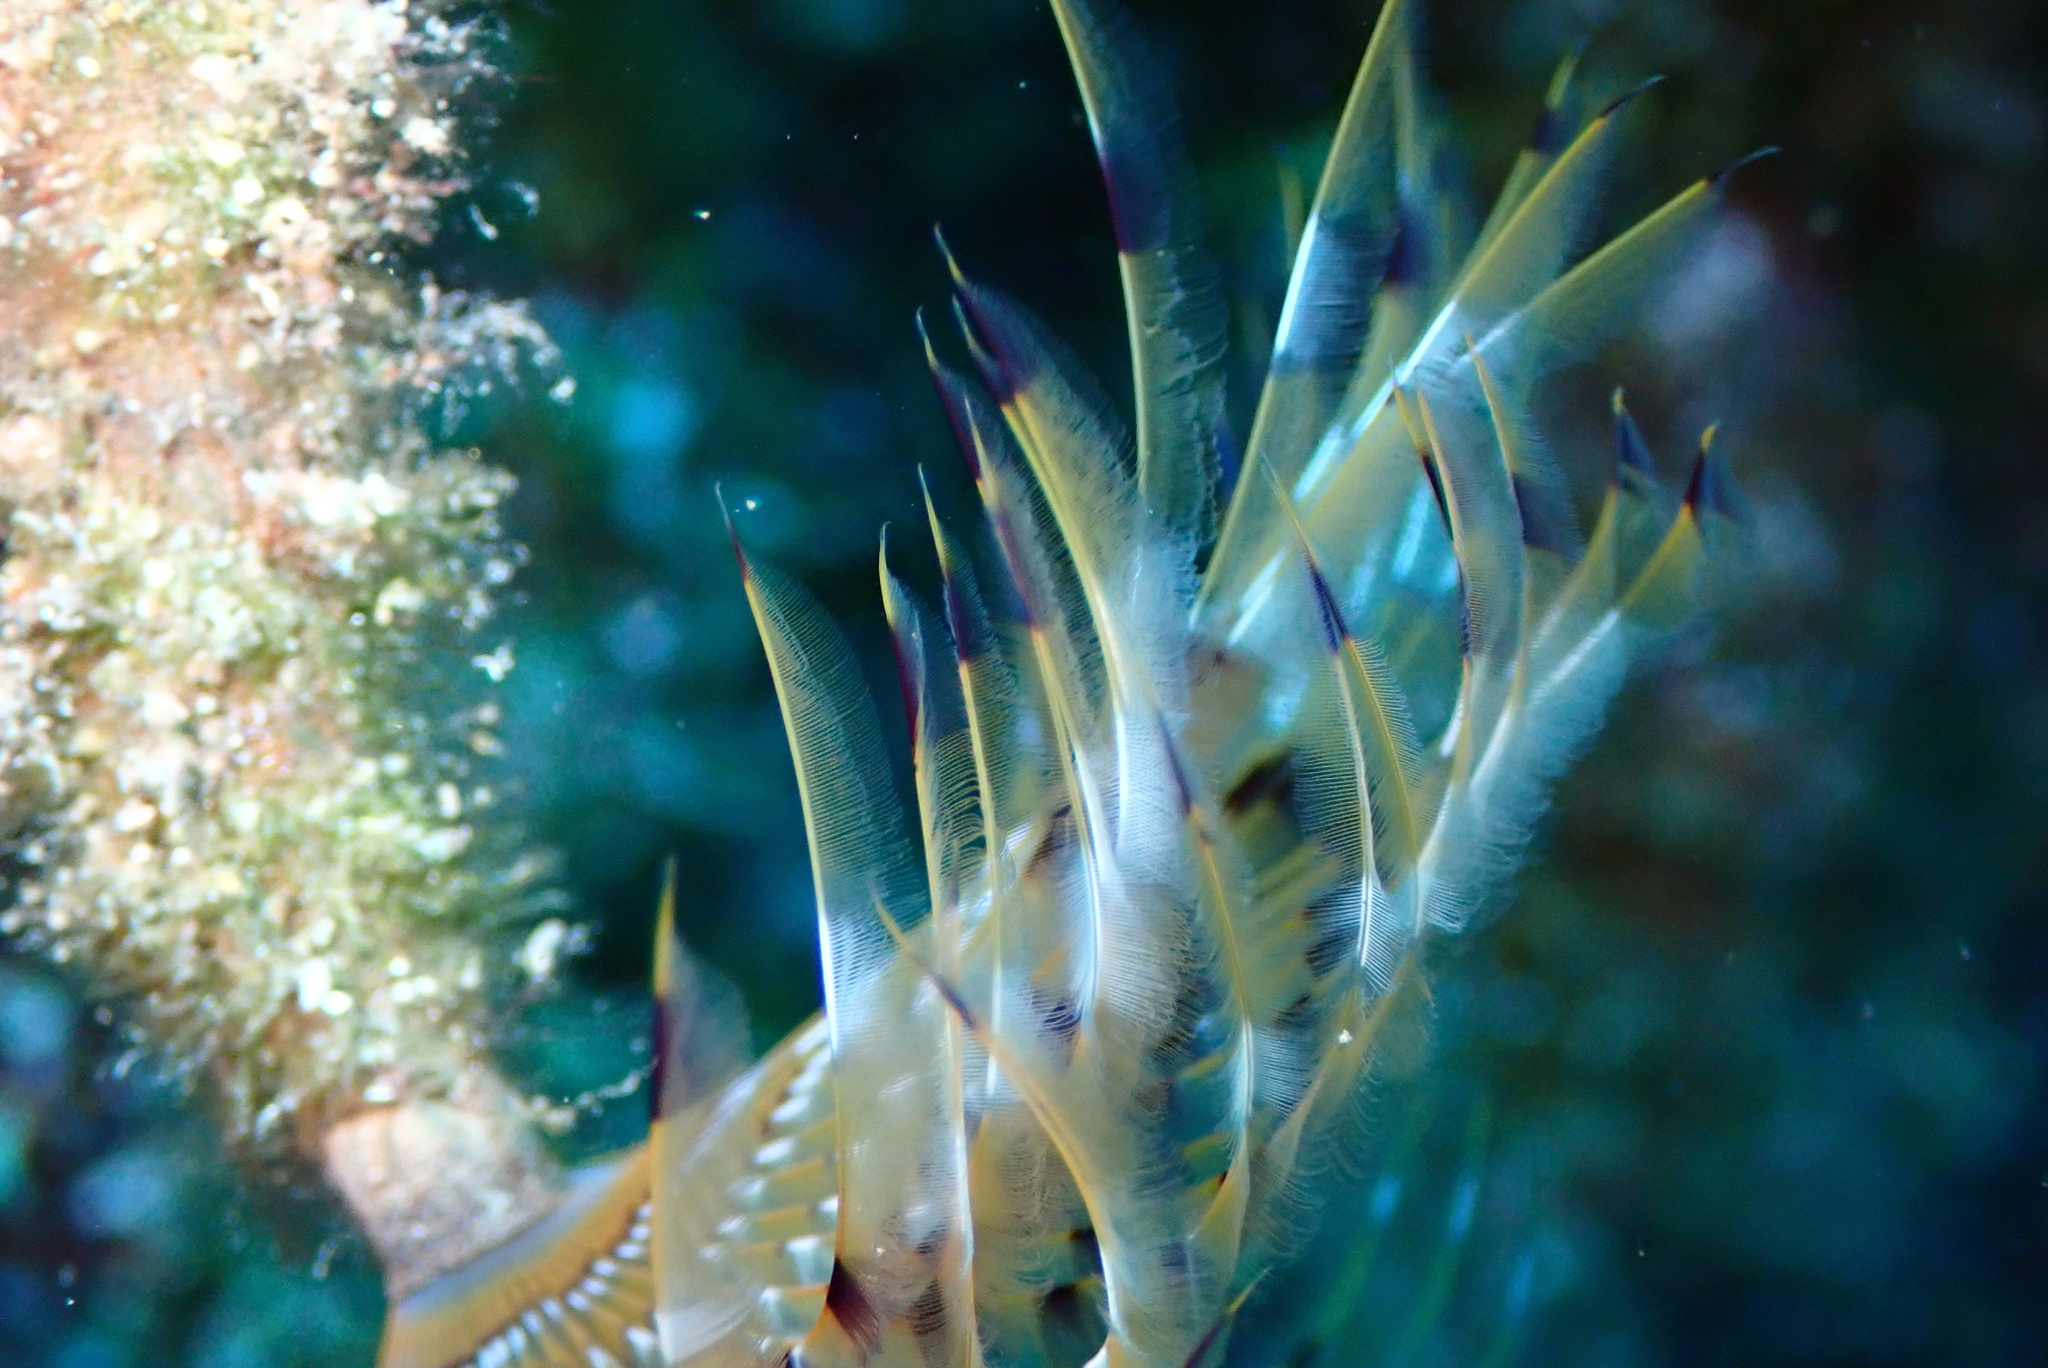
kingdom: Animalia
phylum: Annelida
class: Polychaeta
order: Sabellida
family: Sabellidae
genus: Sabella
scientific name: Sabella spallanzanii
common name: Feather duster worm
